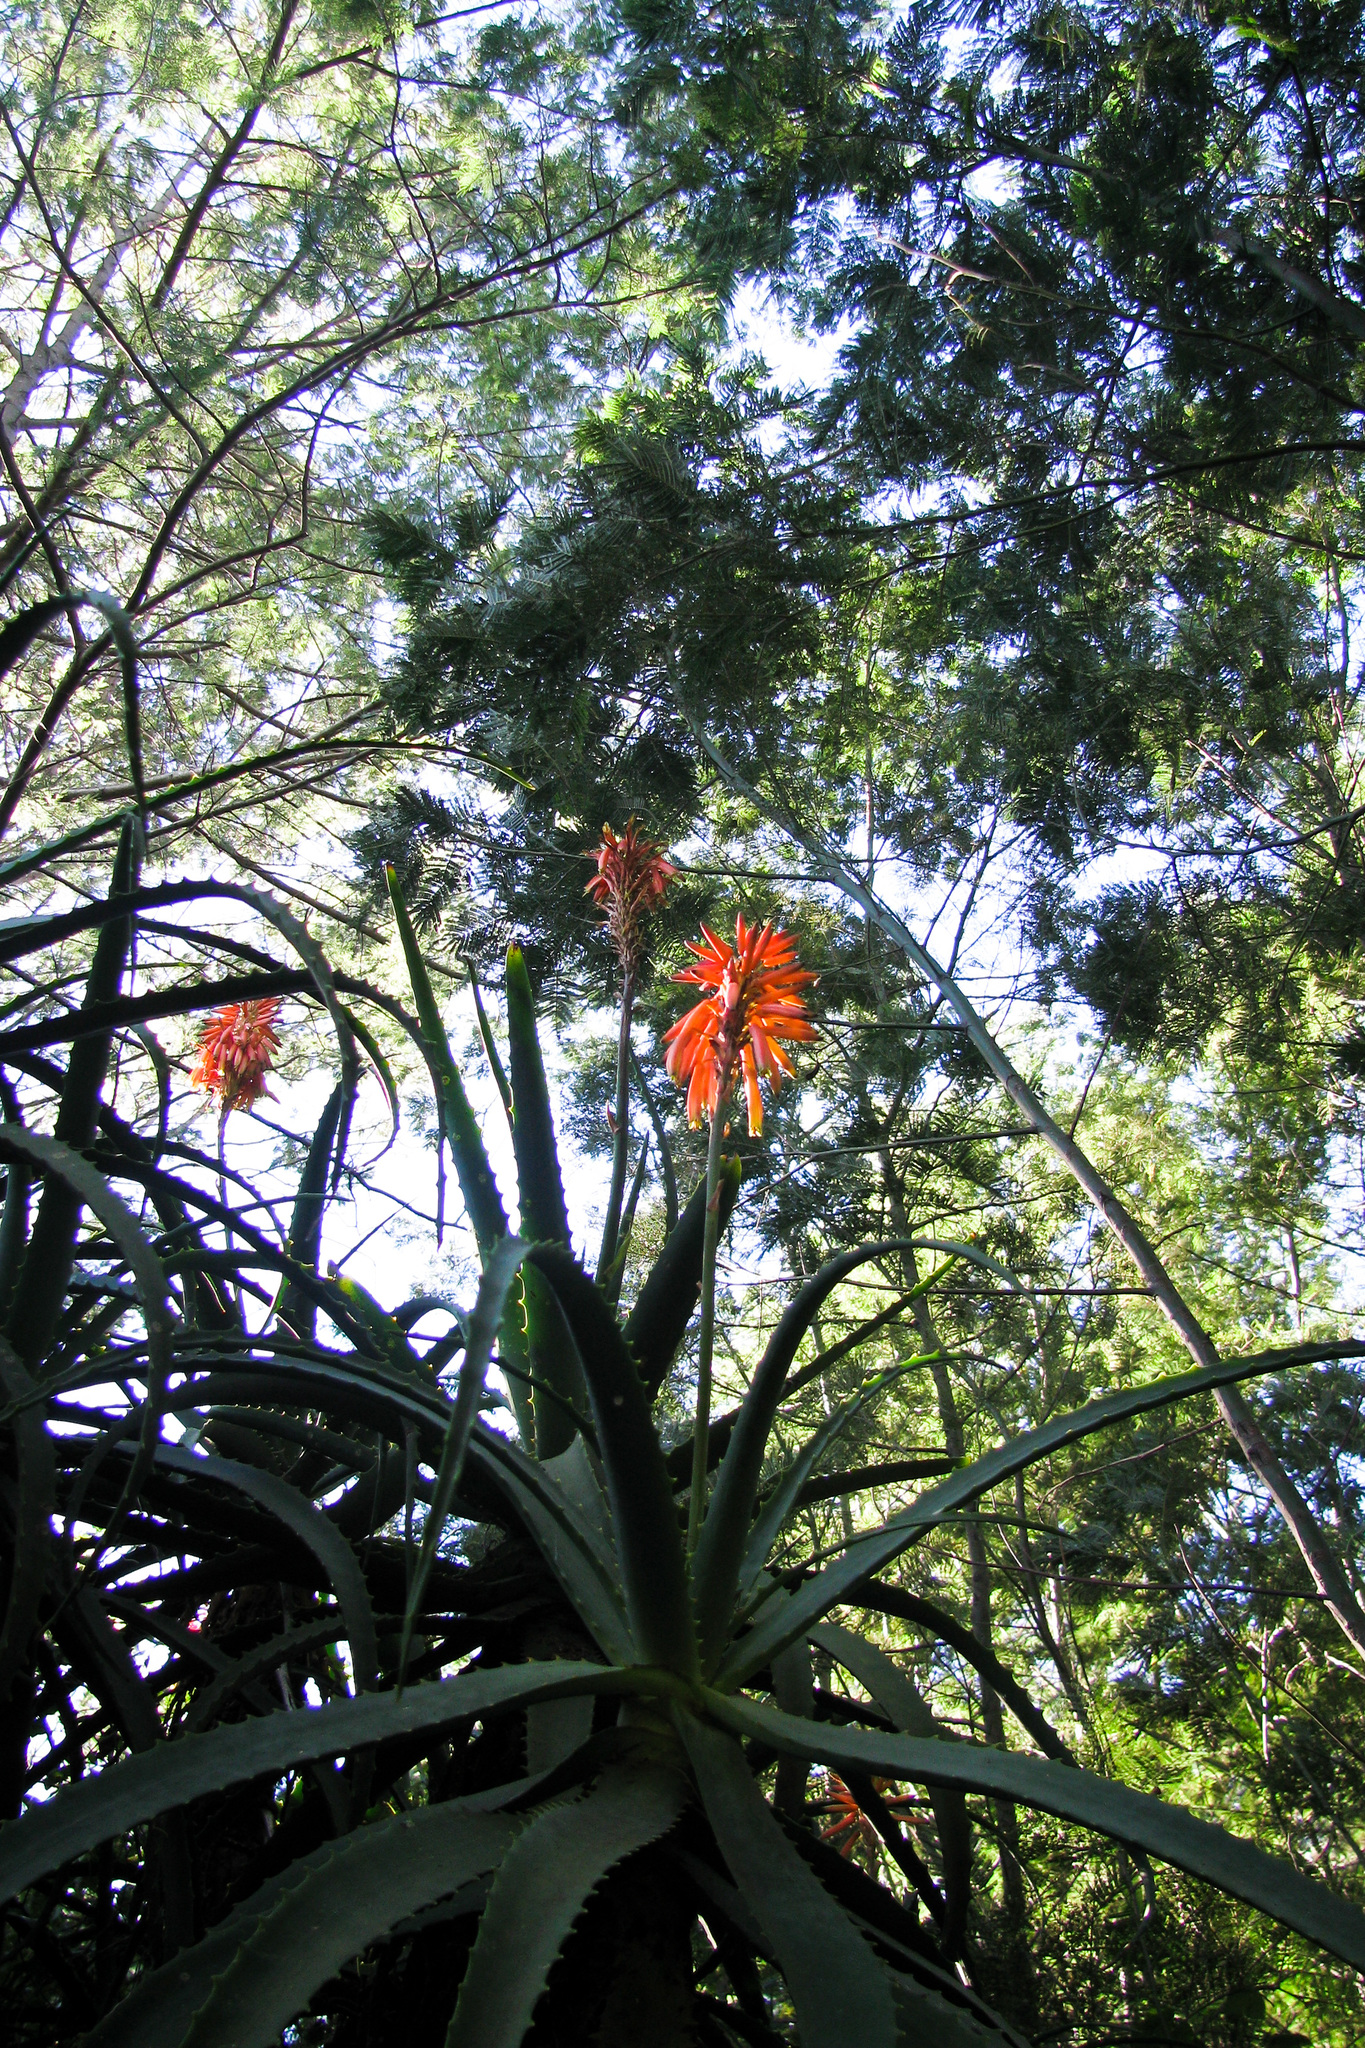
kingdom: Plantae
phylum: Tracheophyta
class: Liliopsida
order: Asparagales
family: Asphodelaceae
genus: Aloe
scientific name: Aloe arborescens
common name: Candelabra aloe
